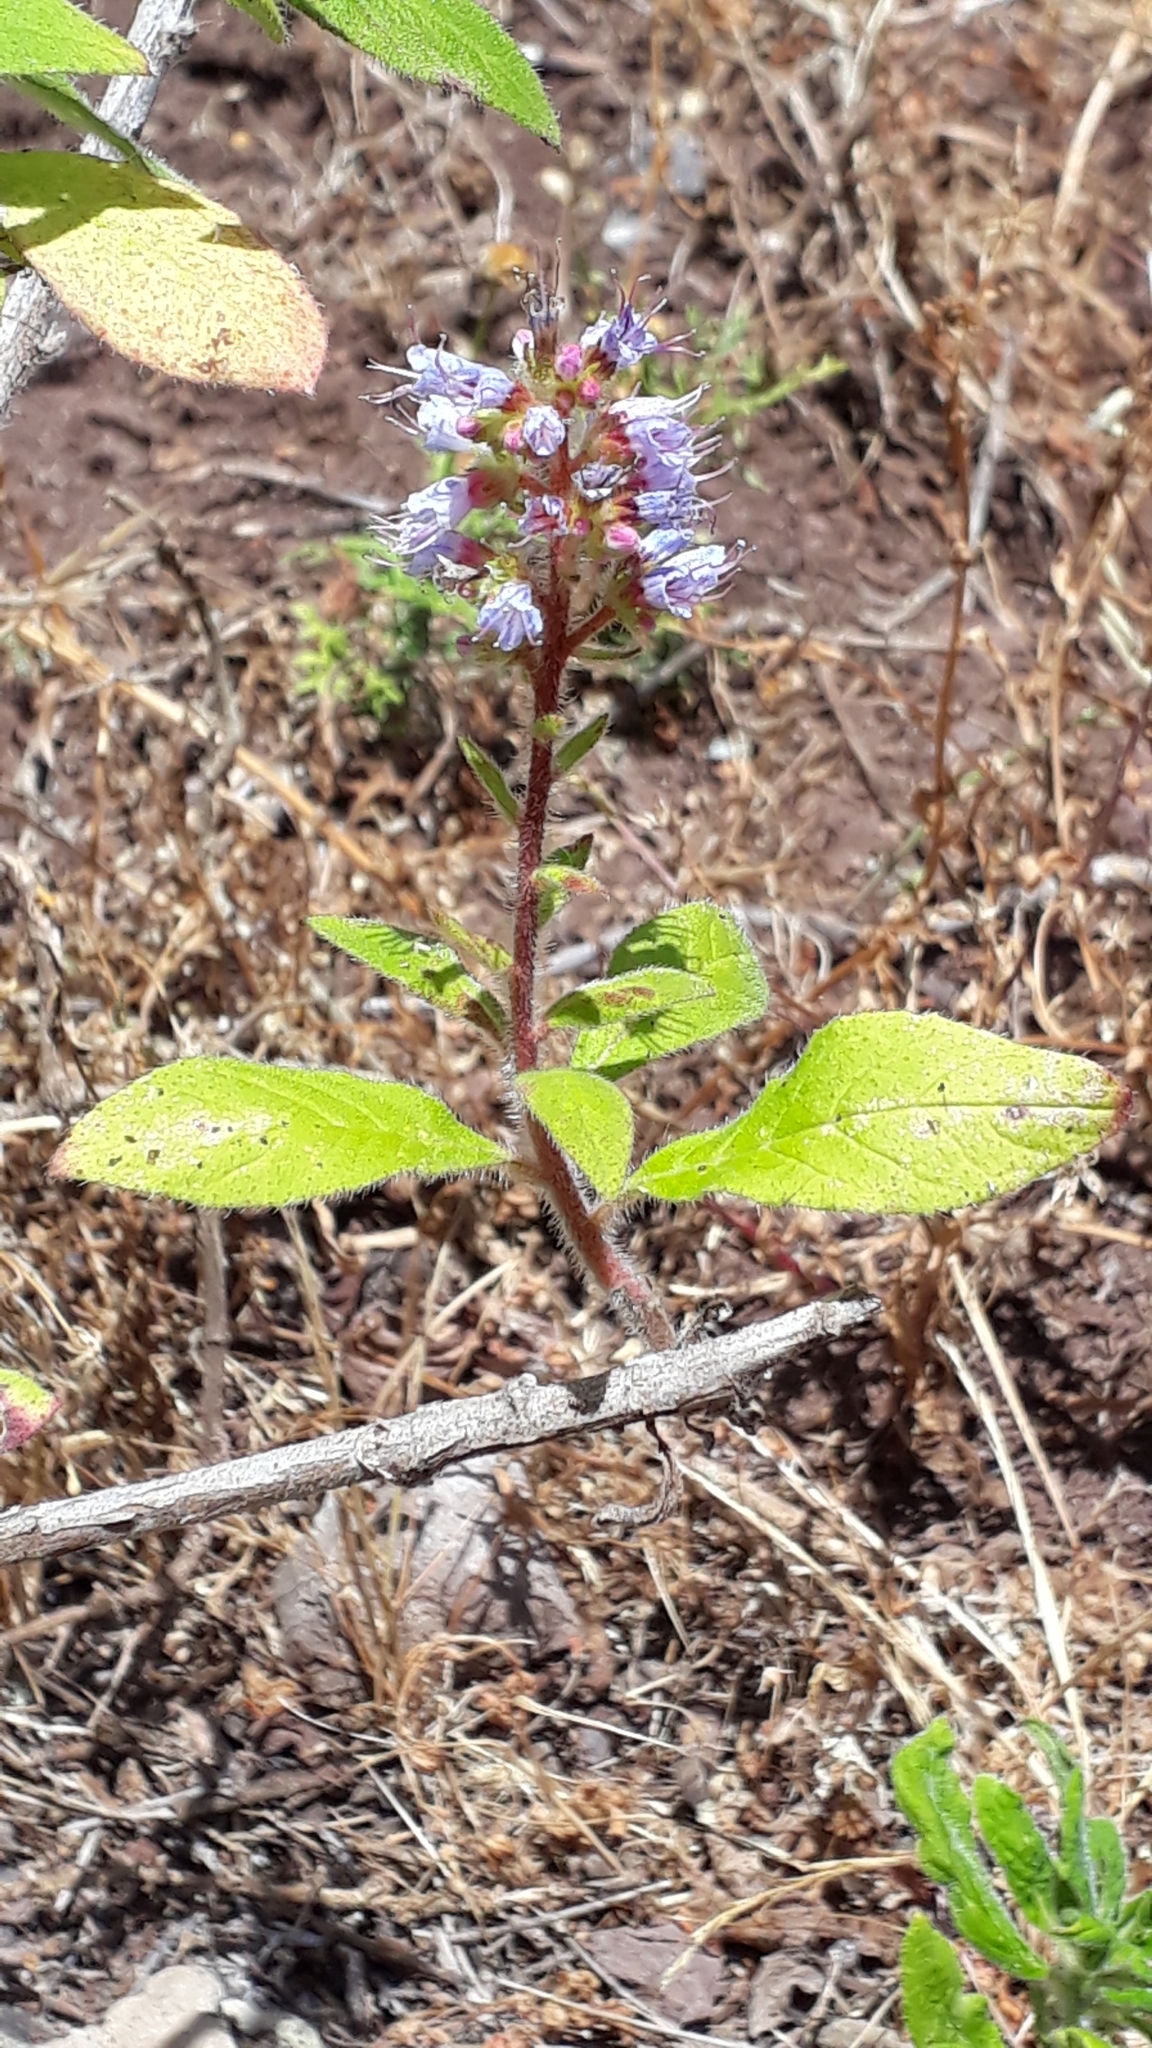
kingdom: Plantae
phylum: Tracheophyta
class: Magnoliopsida
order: Boraginales
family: Boraginaceae
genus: Echium
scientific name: Echium strictum
